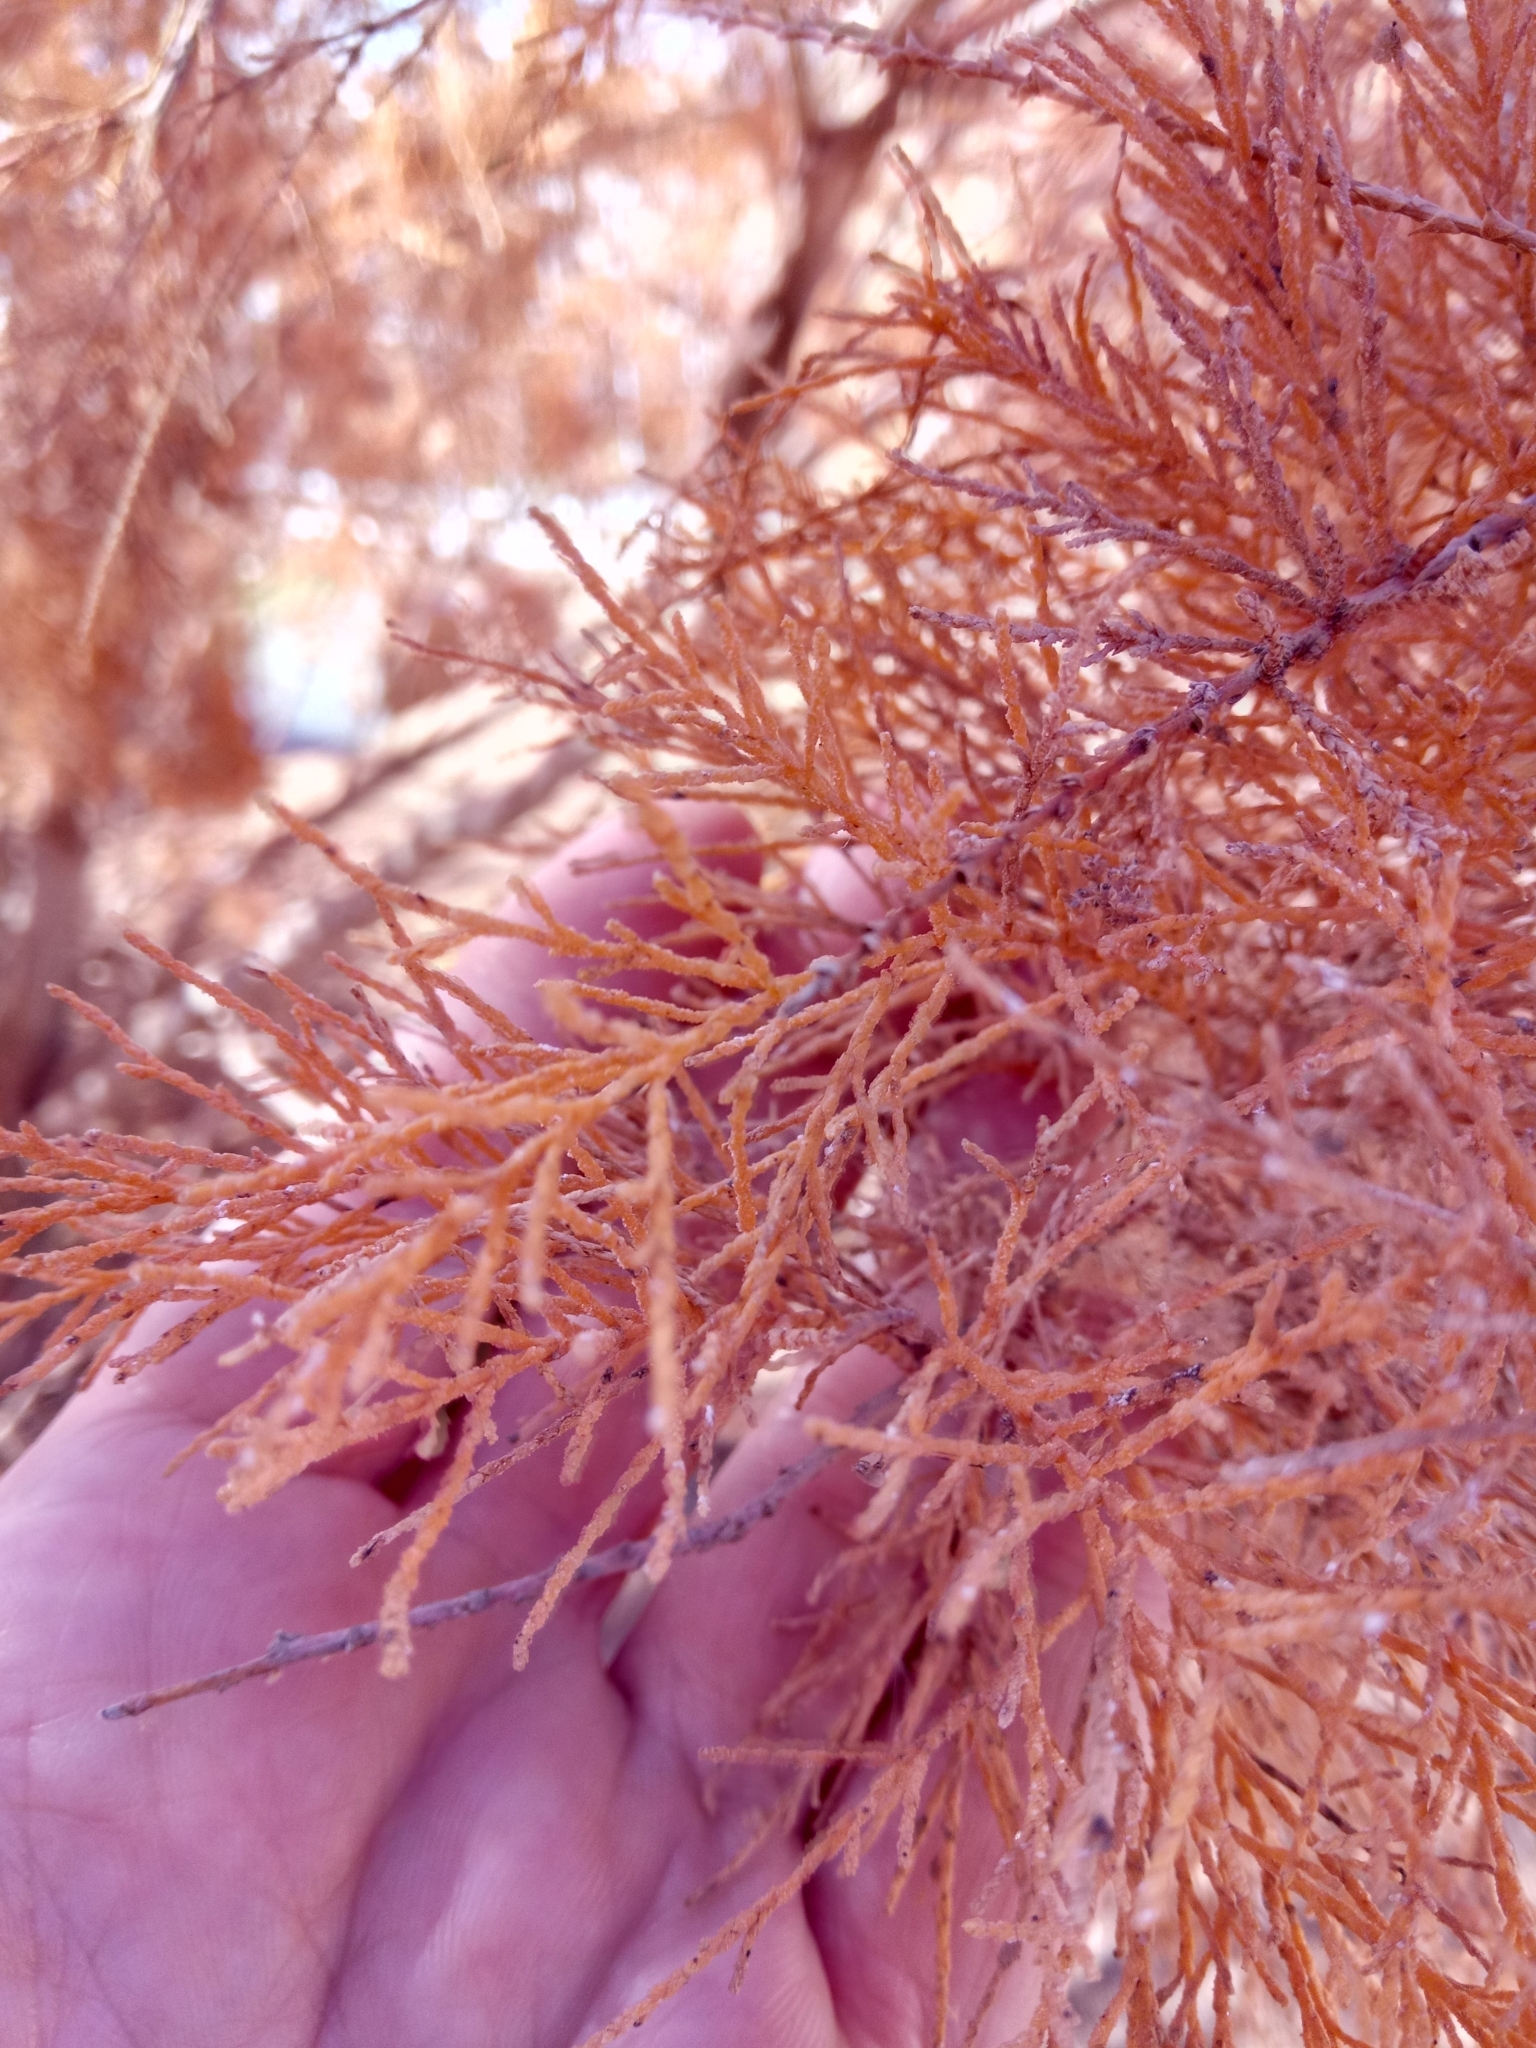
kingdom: Plantae
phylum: Tracheophyta
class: Magnoliopsida
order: Caryophyllales
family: Tamaricaceae
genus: Tamarix
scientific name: Tamarix gallica
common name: Tamarisk
